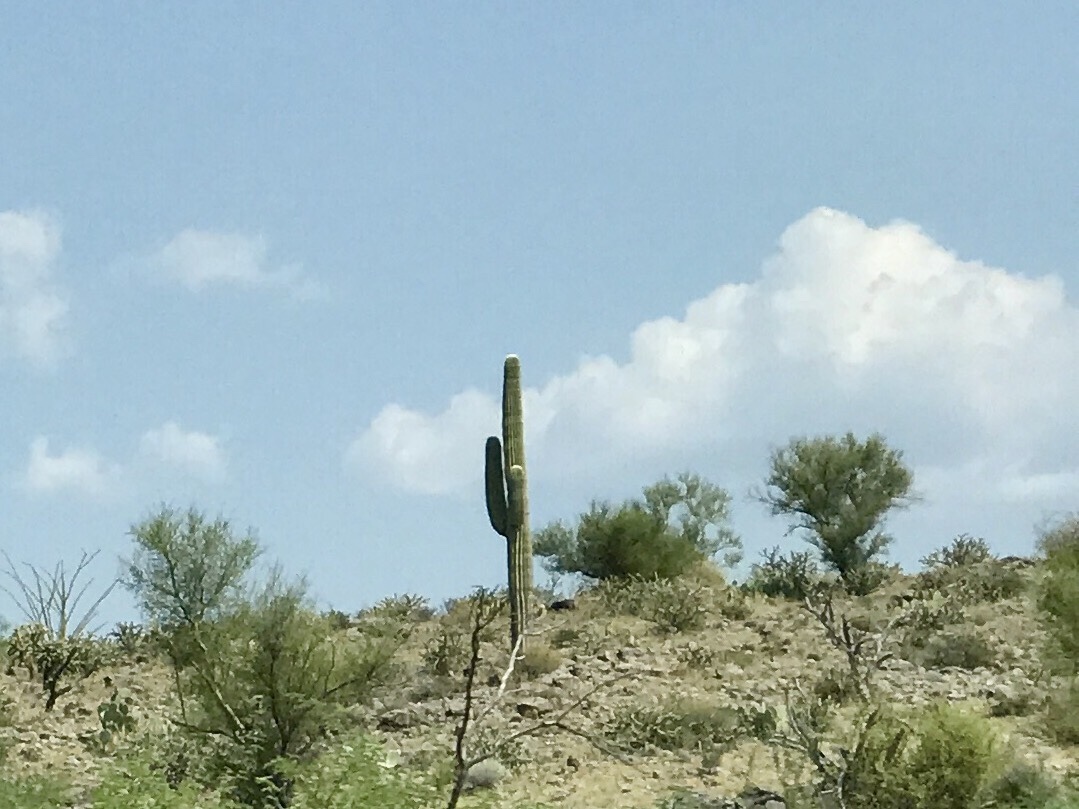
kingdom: Plantae
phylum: Tracheophyta
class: Magnoliopsida
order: Caryophyllales
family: Cactaceae
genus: Carnegiea
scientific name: Carnegiea gigantea
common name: Saguaro
